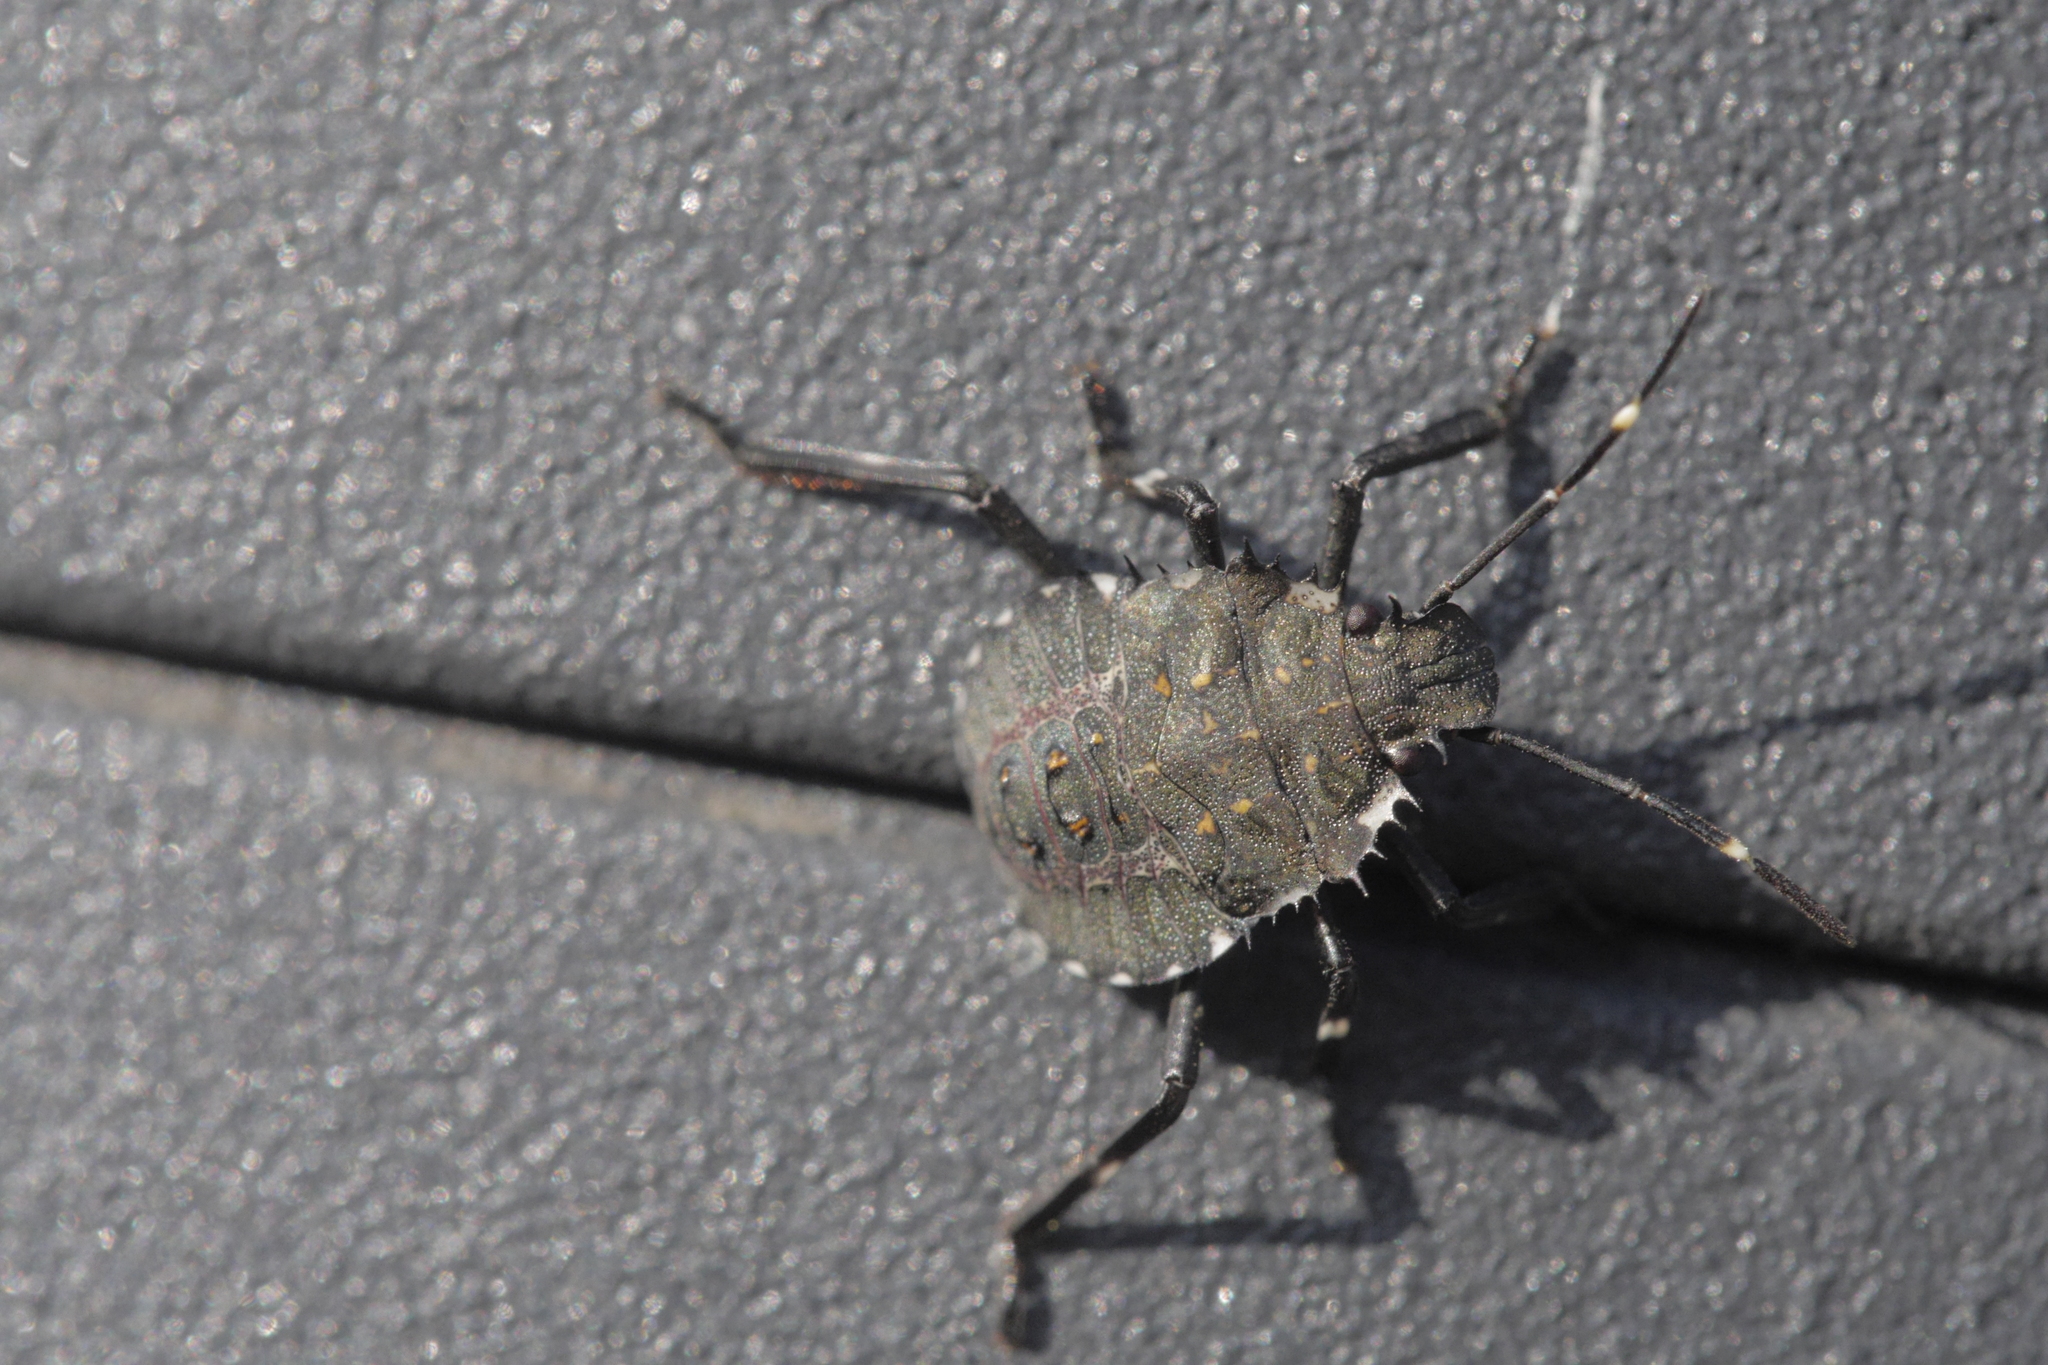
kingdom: Animalia
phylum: Arthropoda
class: Insecta
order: Hemiptera
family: Pentatomidae
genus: Halyomorpha
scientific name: Halyomorpha halys
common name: Brown marmorated stink bug
